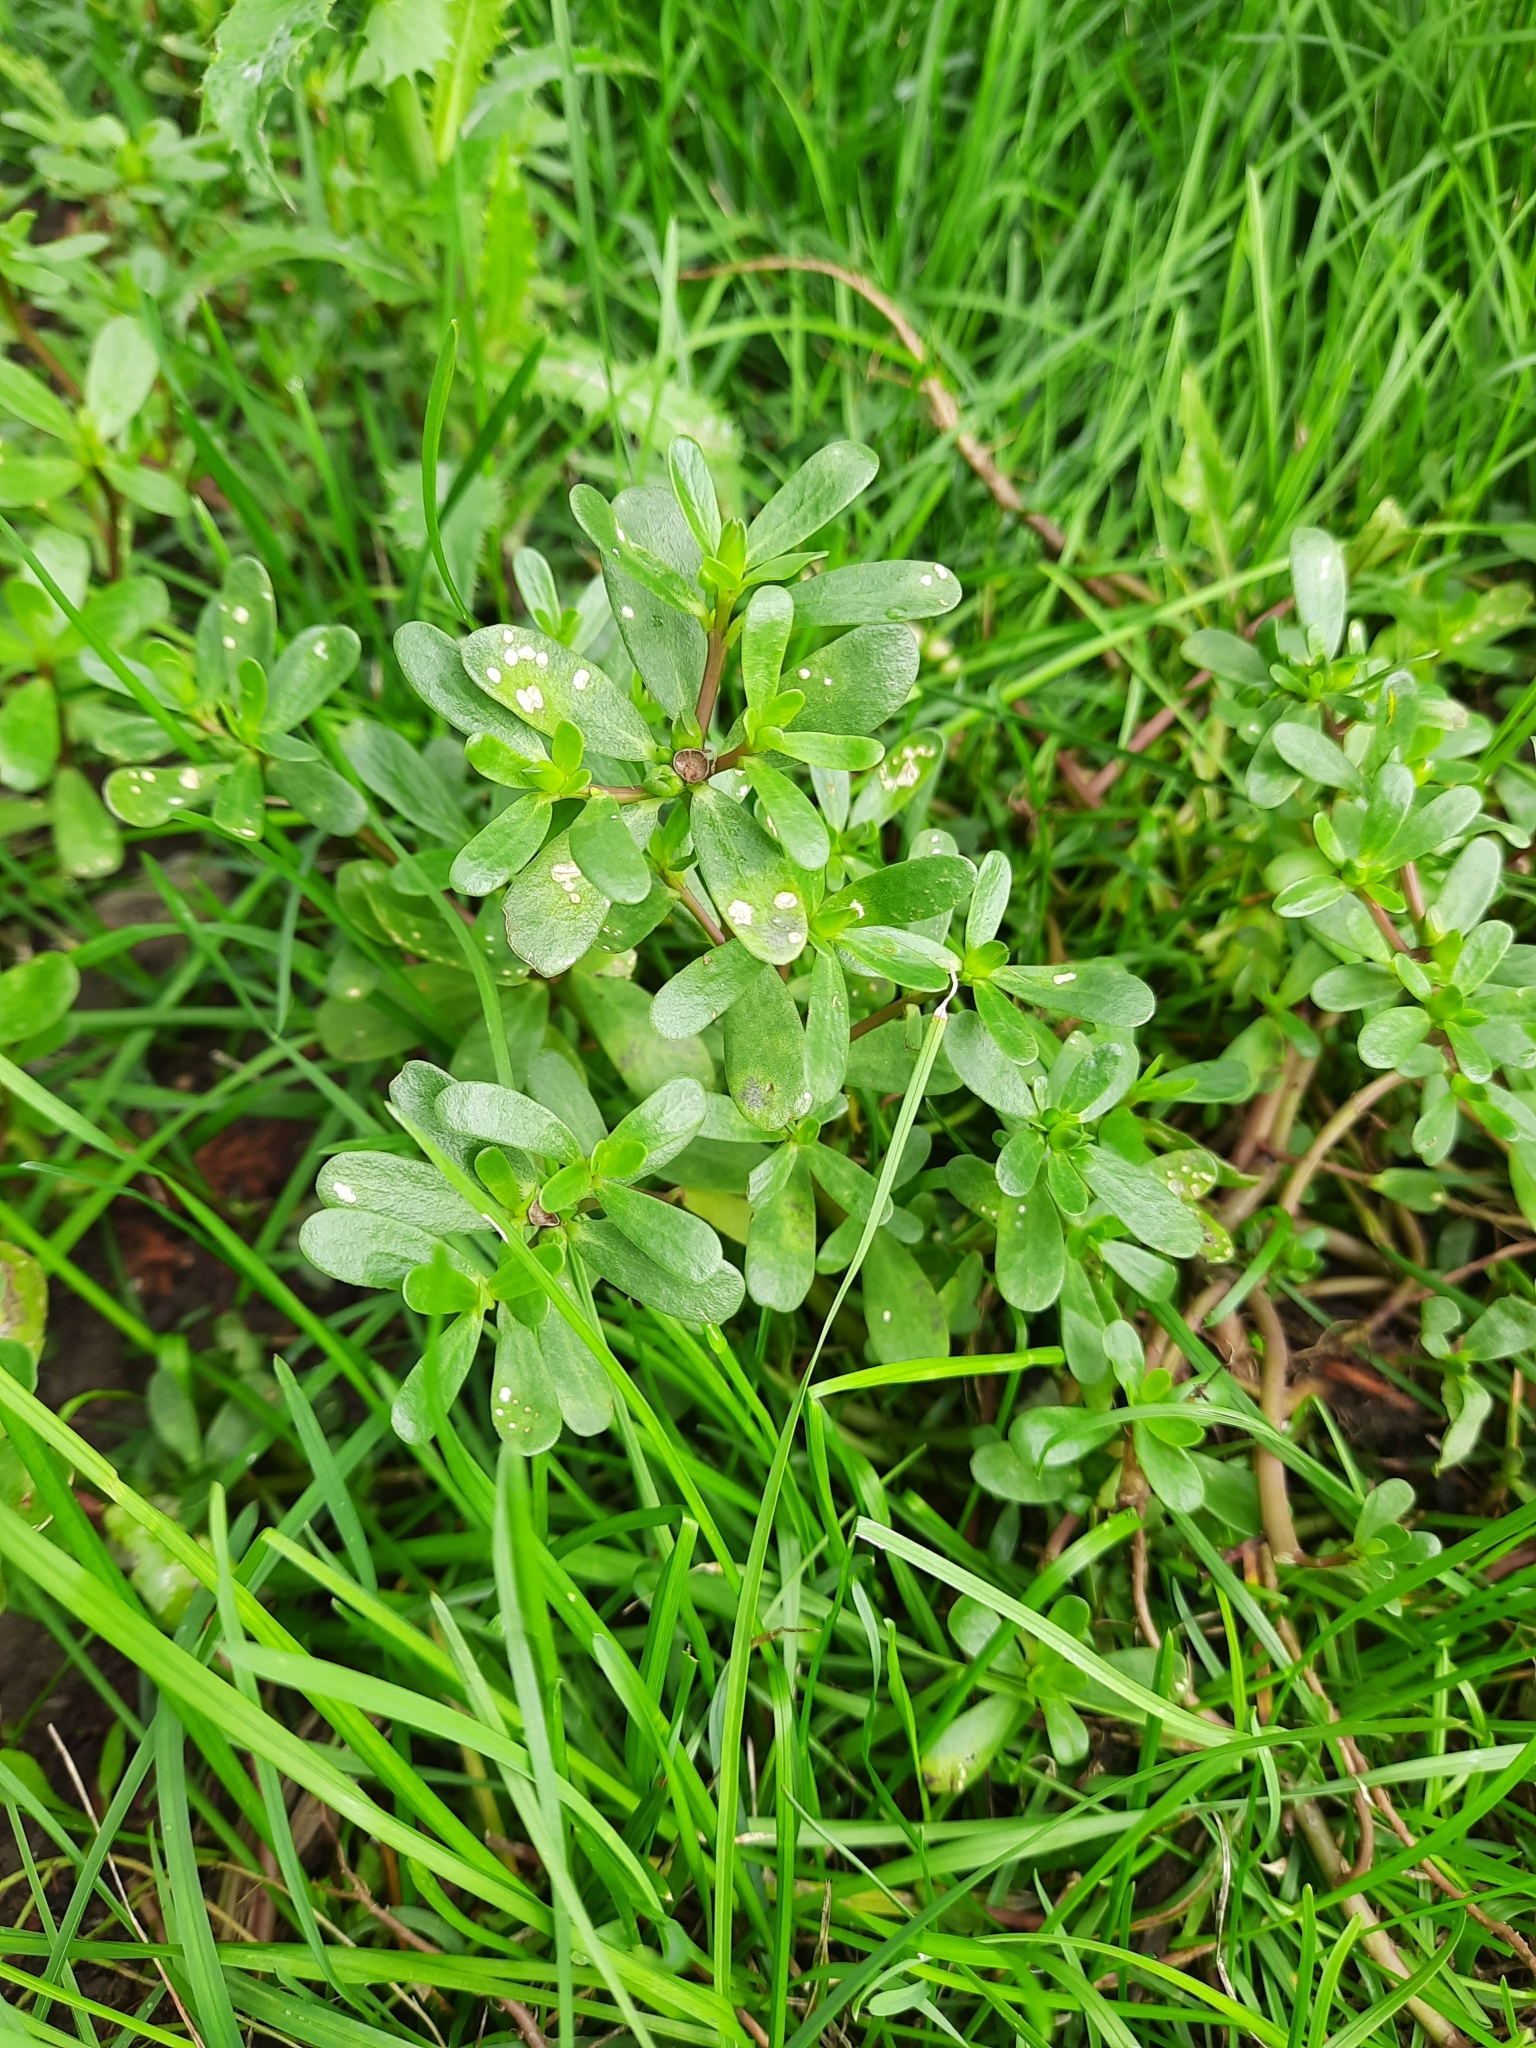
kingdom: Plantae
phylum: Tracheophyta
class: Magnoliopsida
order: Caryophyllales
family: Portulacaceae
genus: Portulaca
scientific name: Portulaca oleracea
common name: Common purslane
